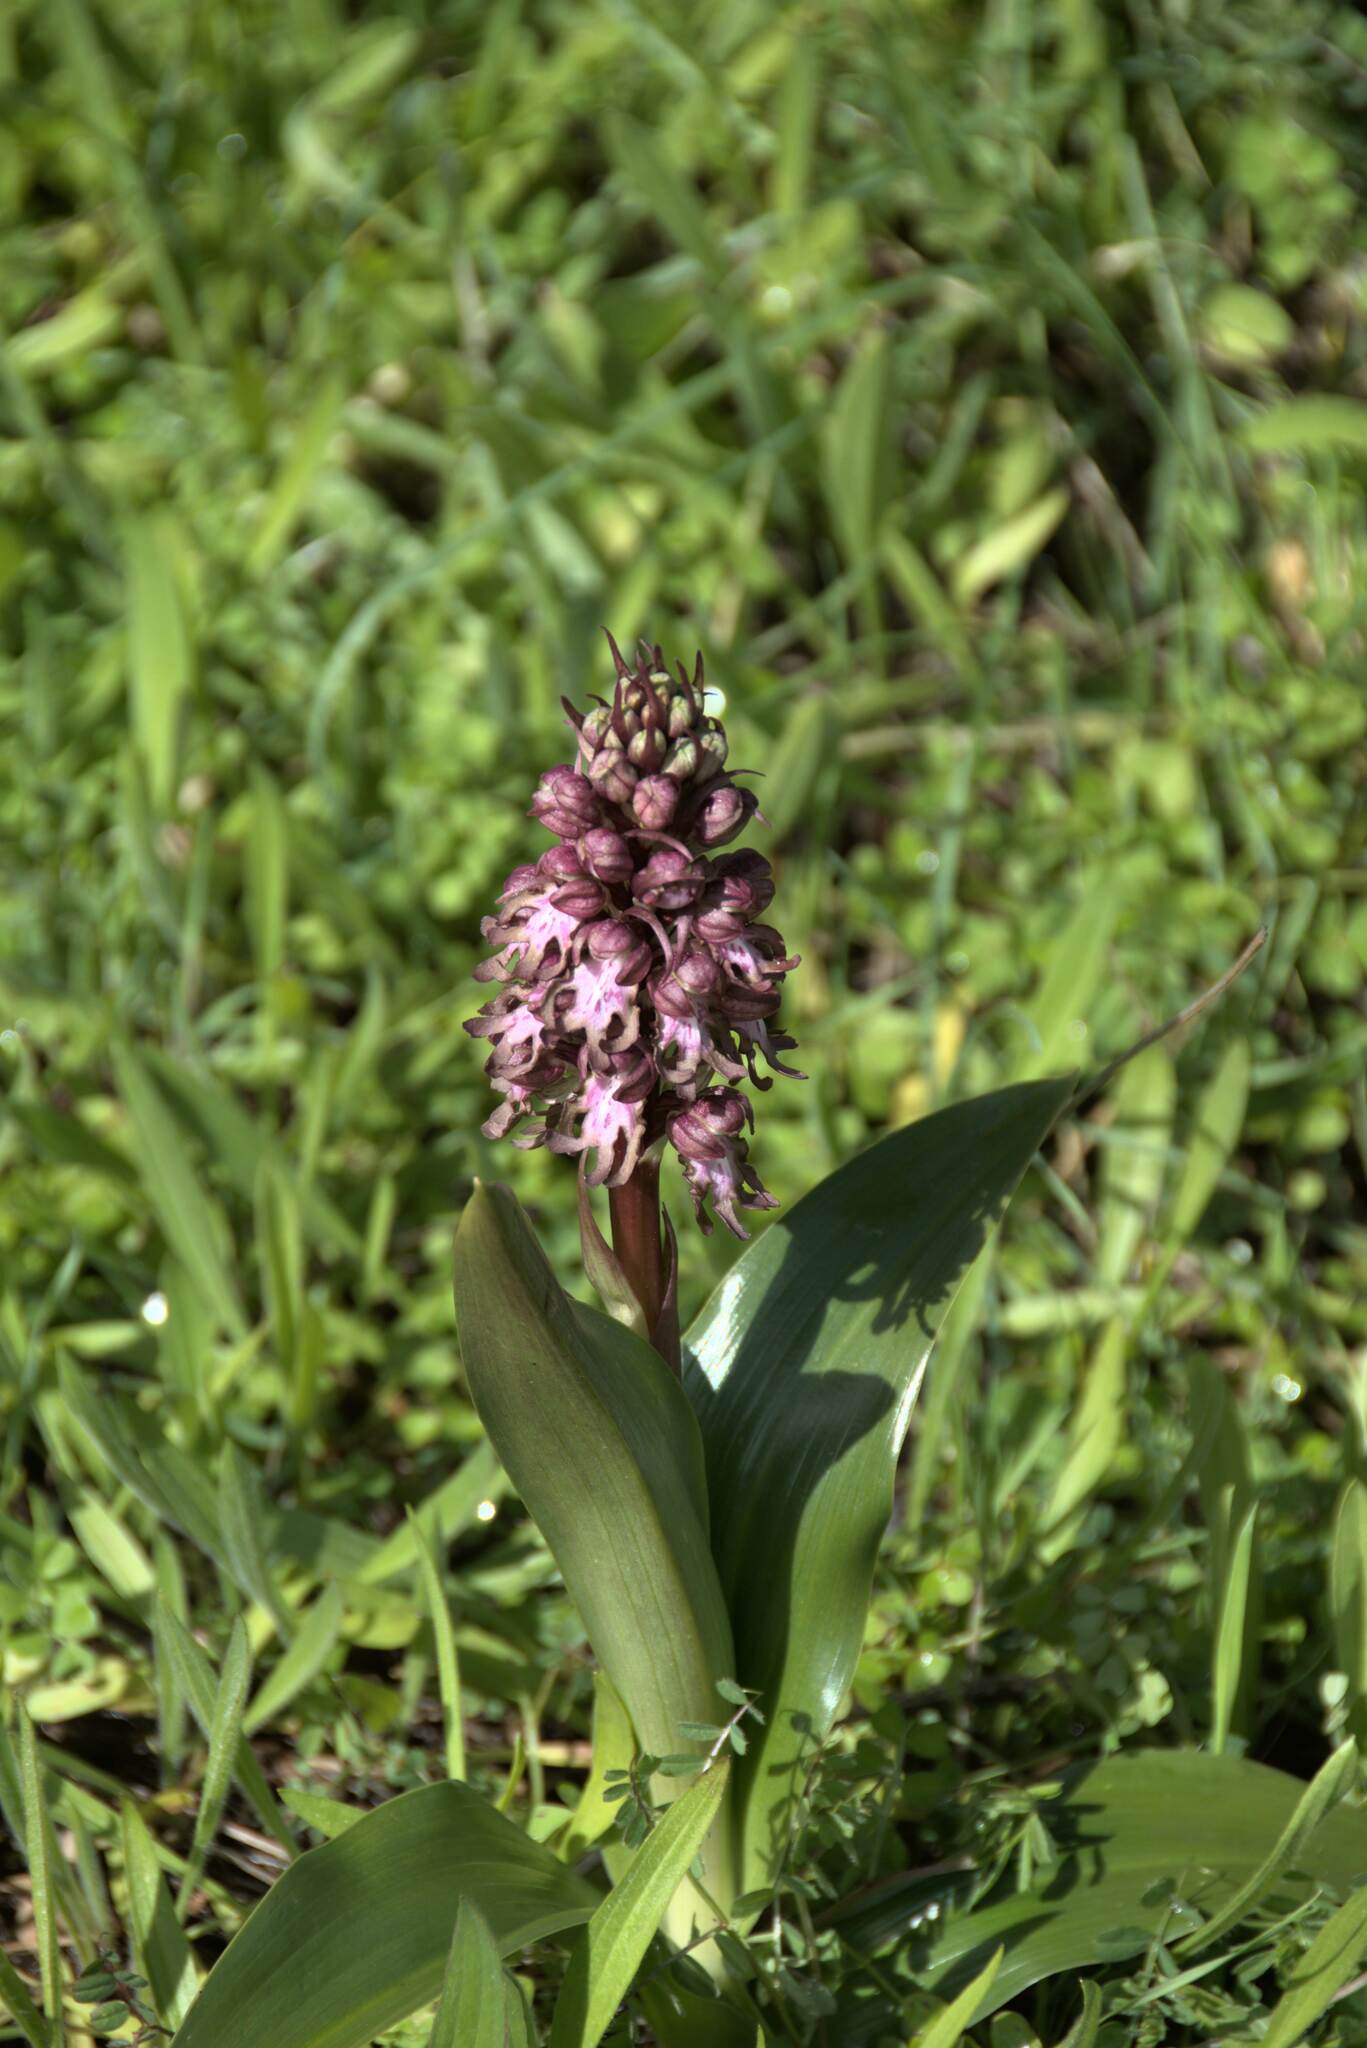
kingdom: Plantae
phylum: Tracheophyta
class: Liliopsida
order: Asparagales
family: Orchidaceae
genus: Himantoglossum
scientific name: Himantoglossum robertianum
